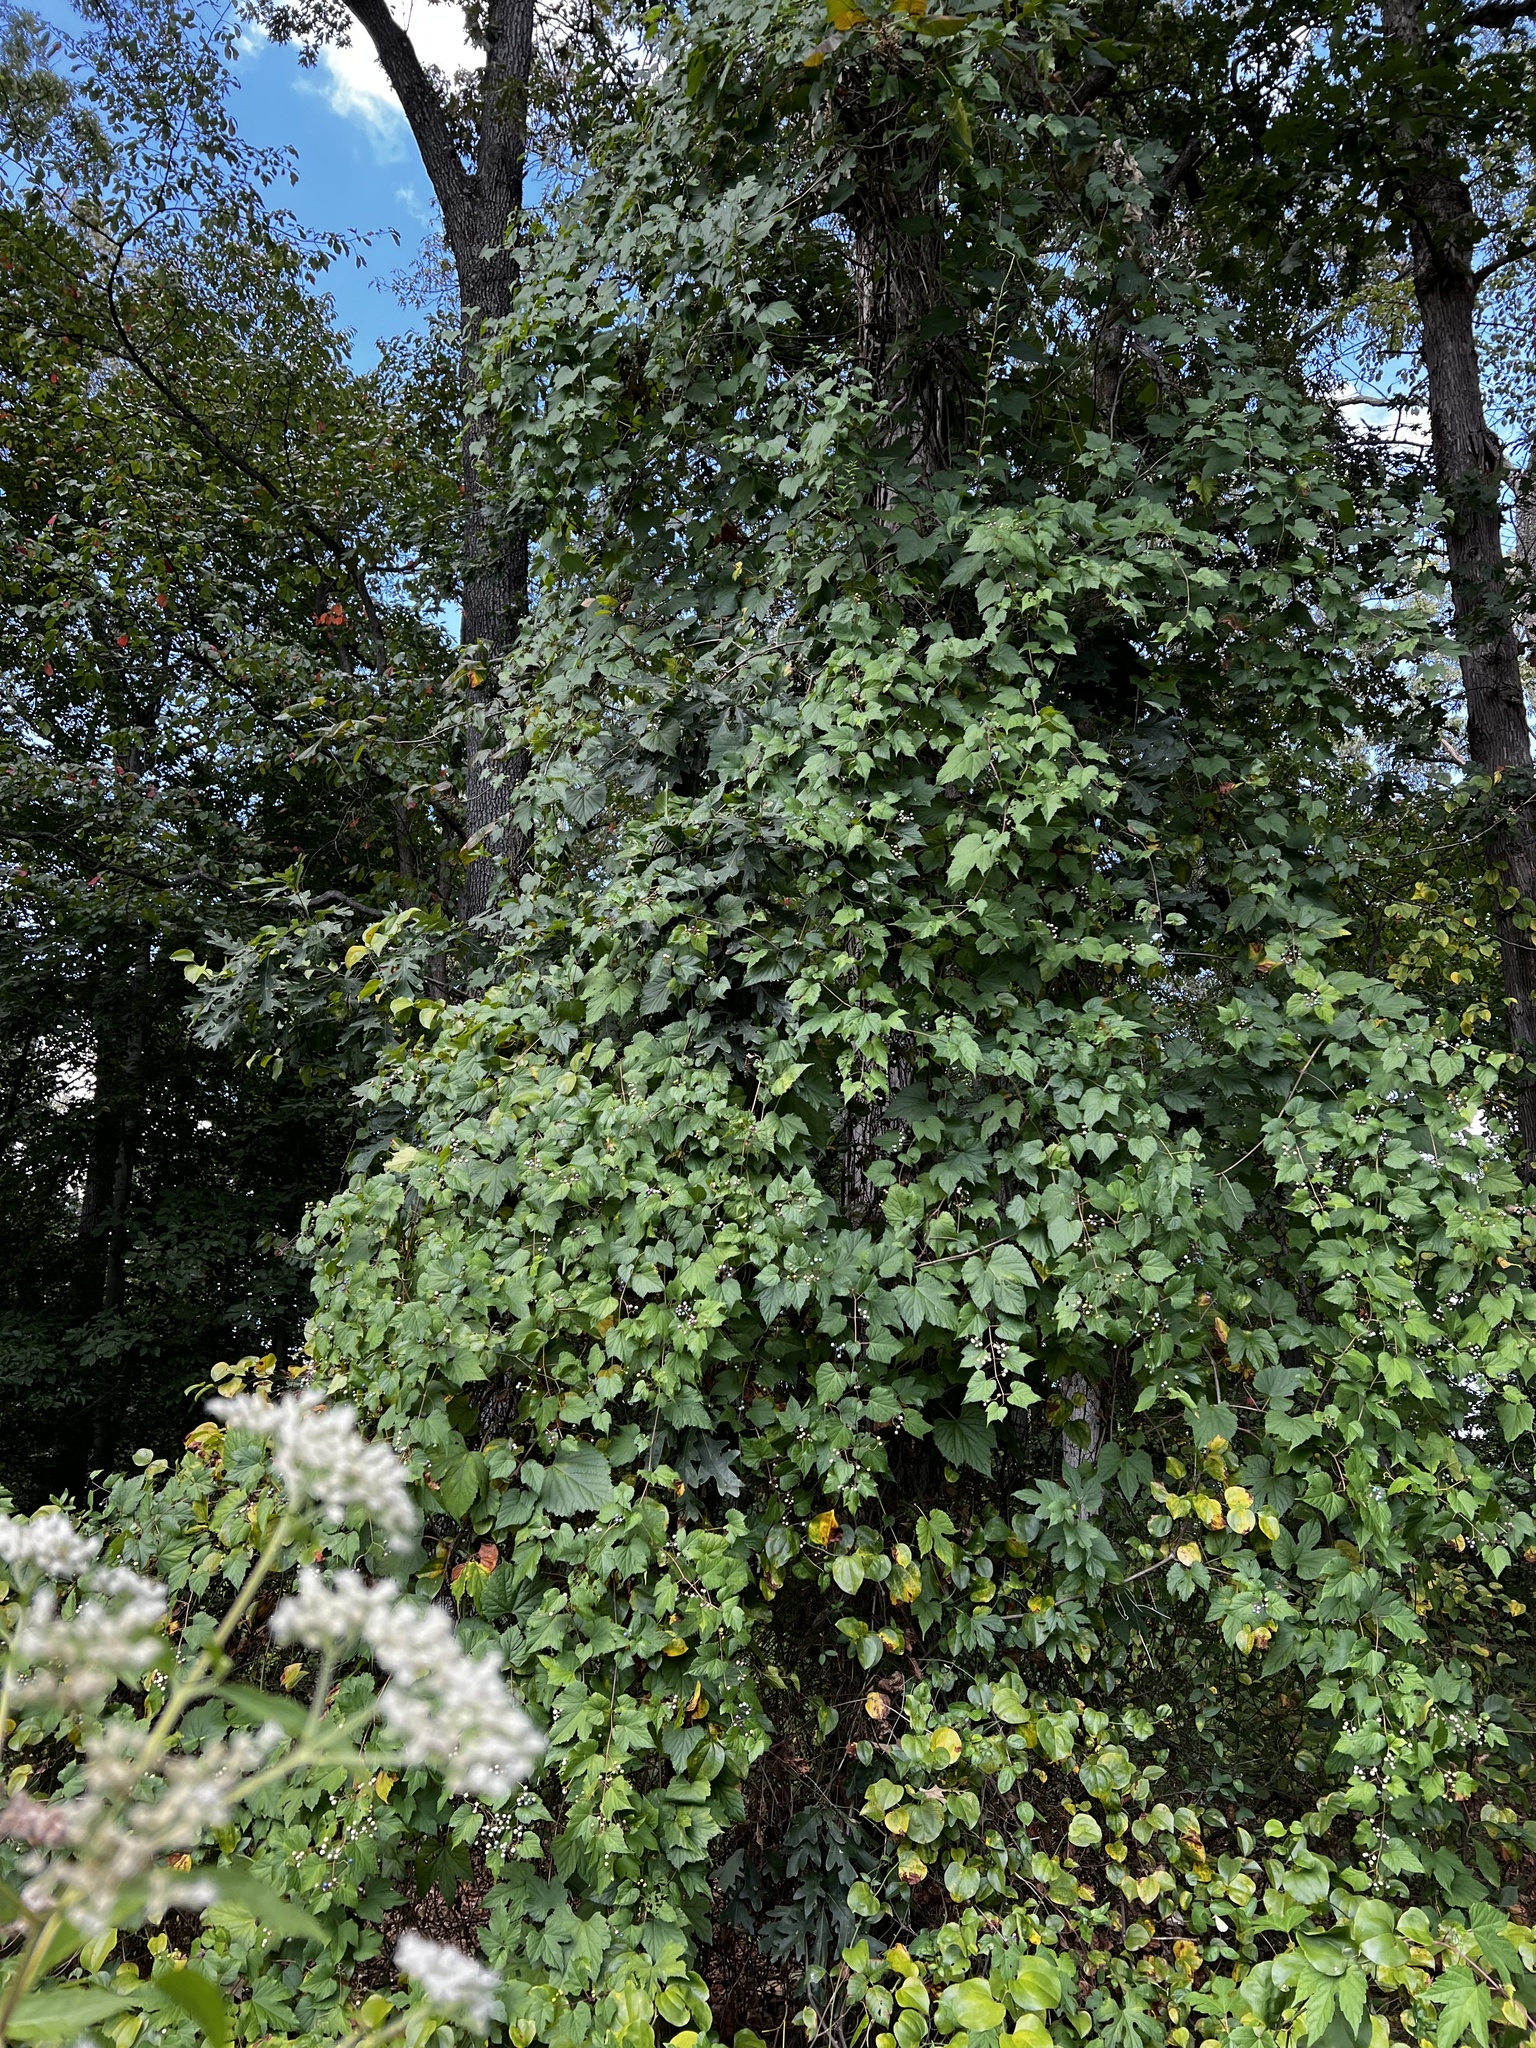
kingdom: Plantae
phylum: Tracheophyta
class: Magnoliopsida
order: Vitales
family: Vitaceae
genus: Ampelopsis
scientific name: Ampelopsis glandulosa
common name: Amur peppervine
